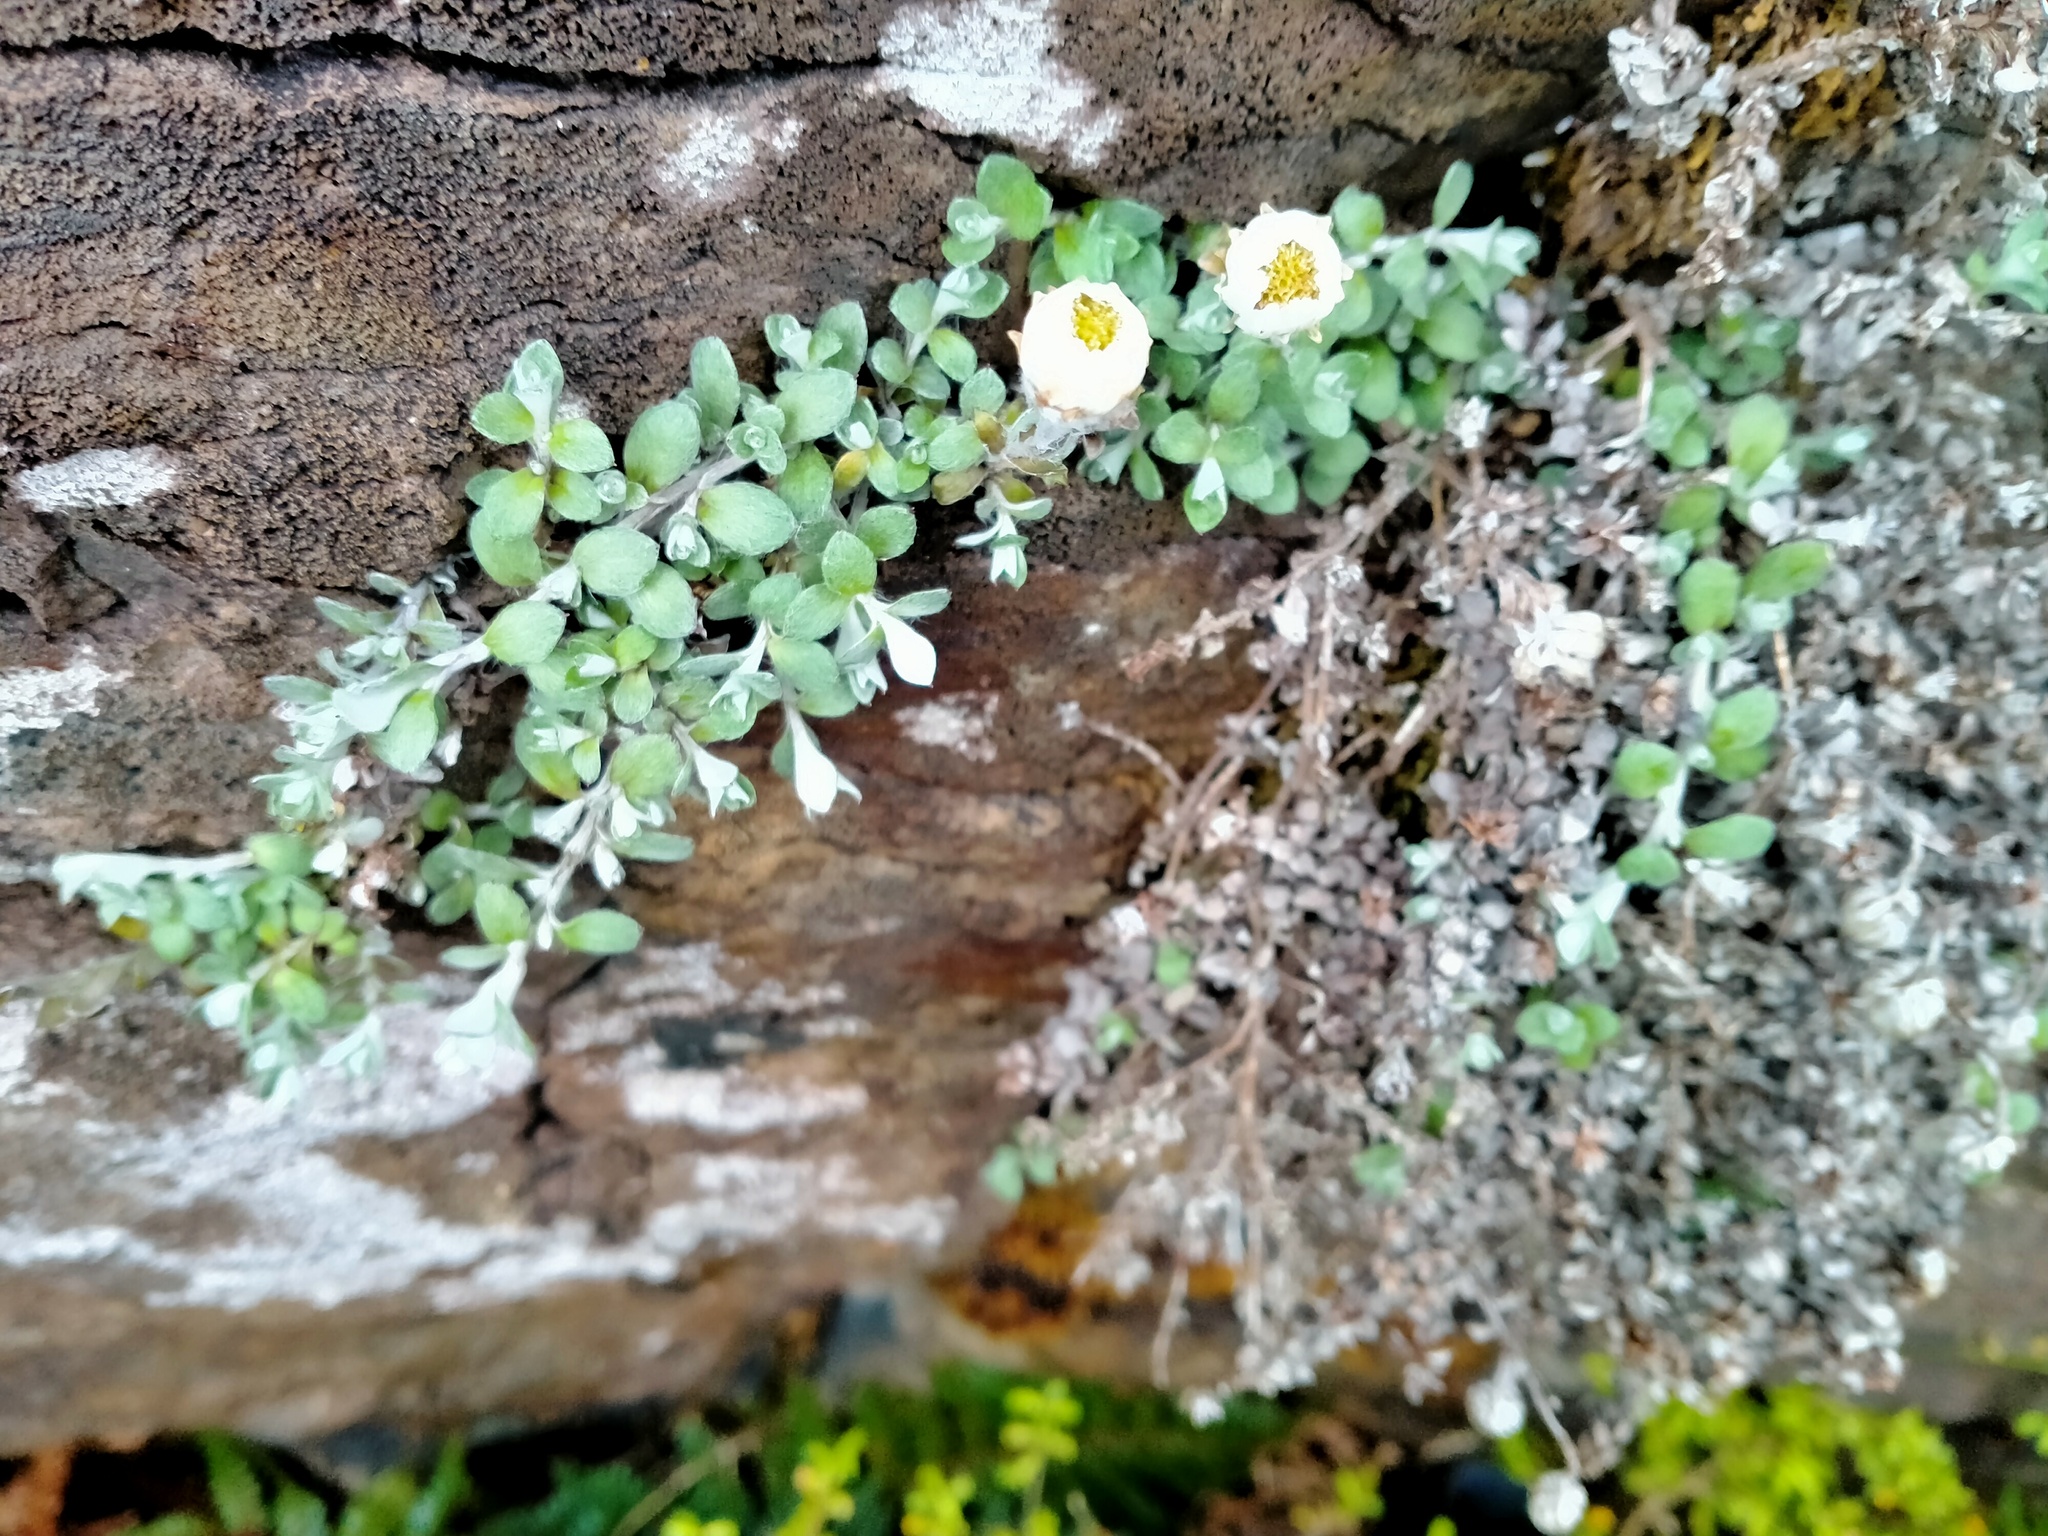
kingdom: Plantae
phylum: Tracheophyta
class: Magnoliopsida
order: Asterales
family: Asteraceae
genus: Anaphalioides
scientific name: Anaphalioides bellidioides
